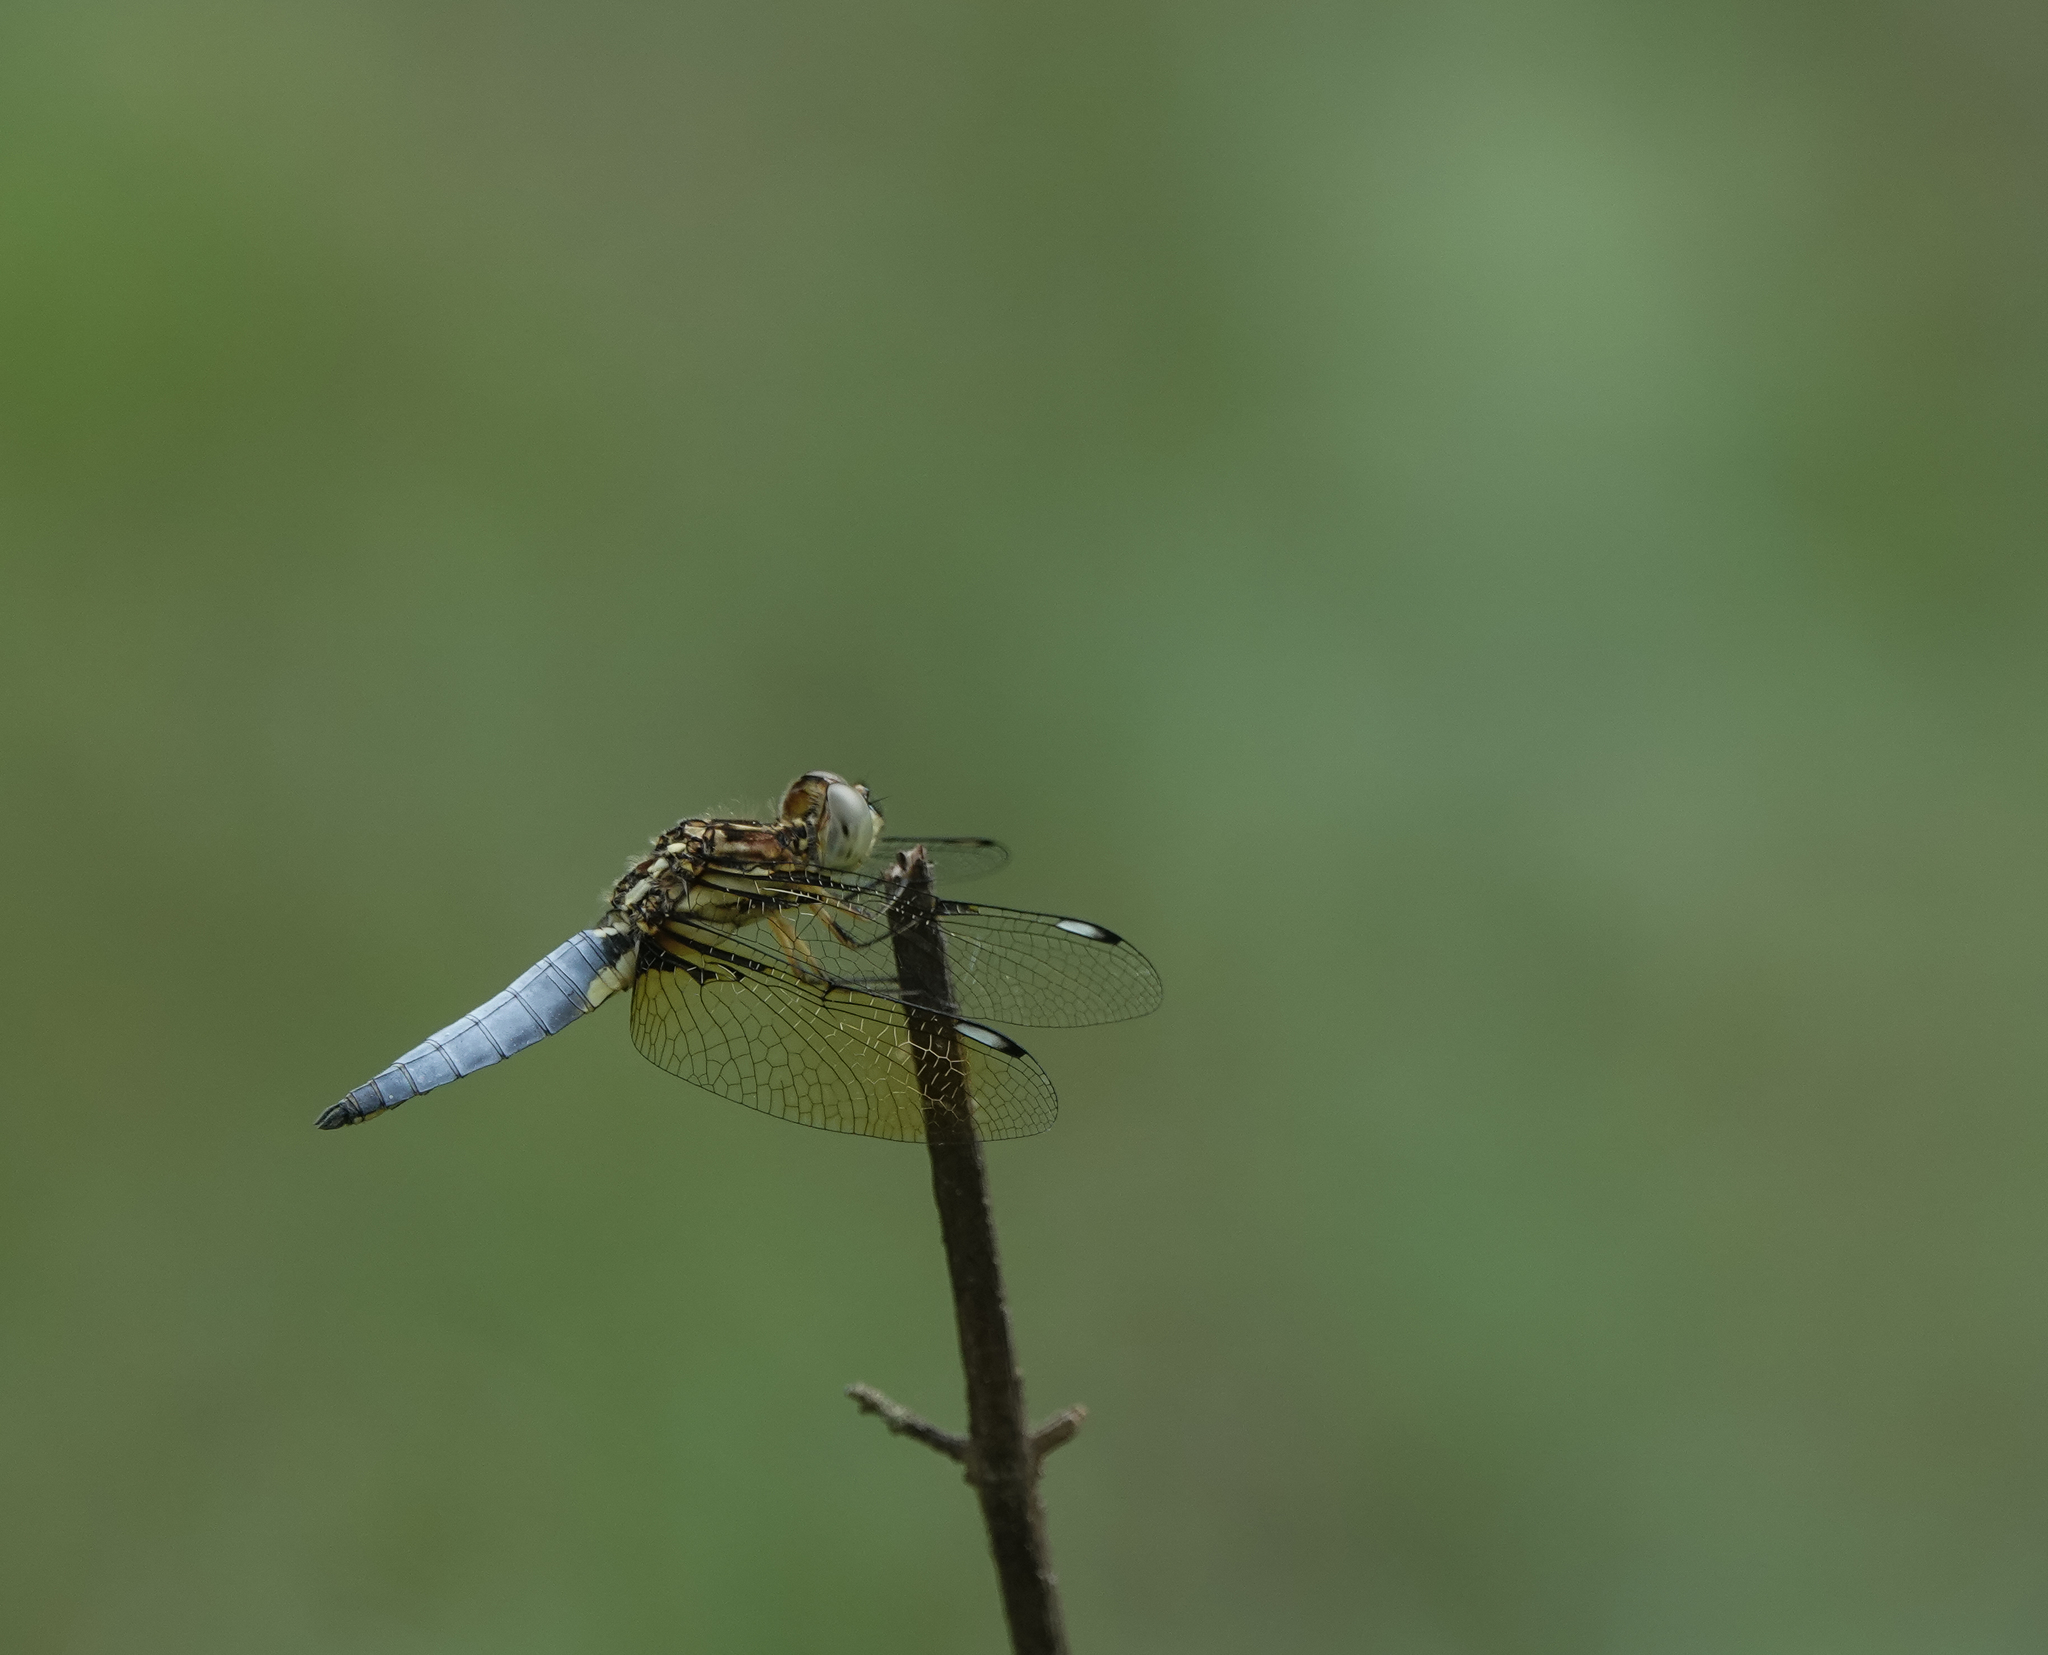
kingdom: Animalia
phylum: Arthropoda
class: Insecta
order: Odonata
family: Libellulidae
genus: Palpopleura
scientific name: Palpopleura sexmaculata
